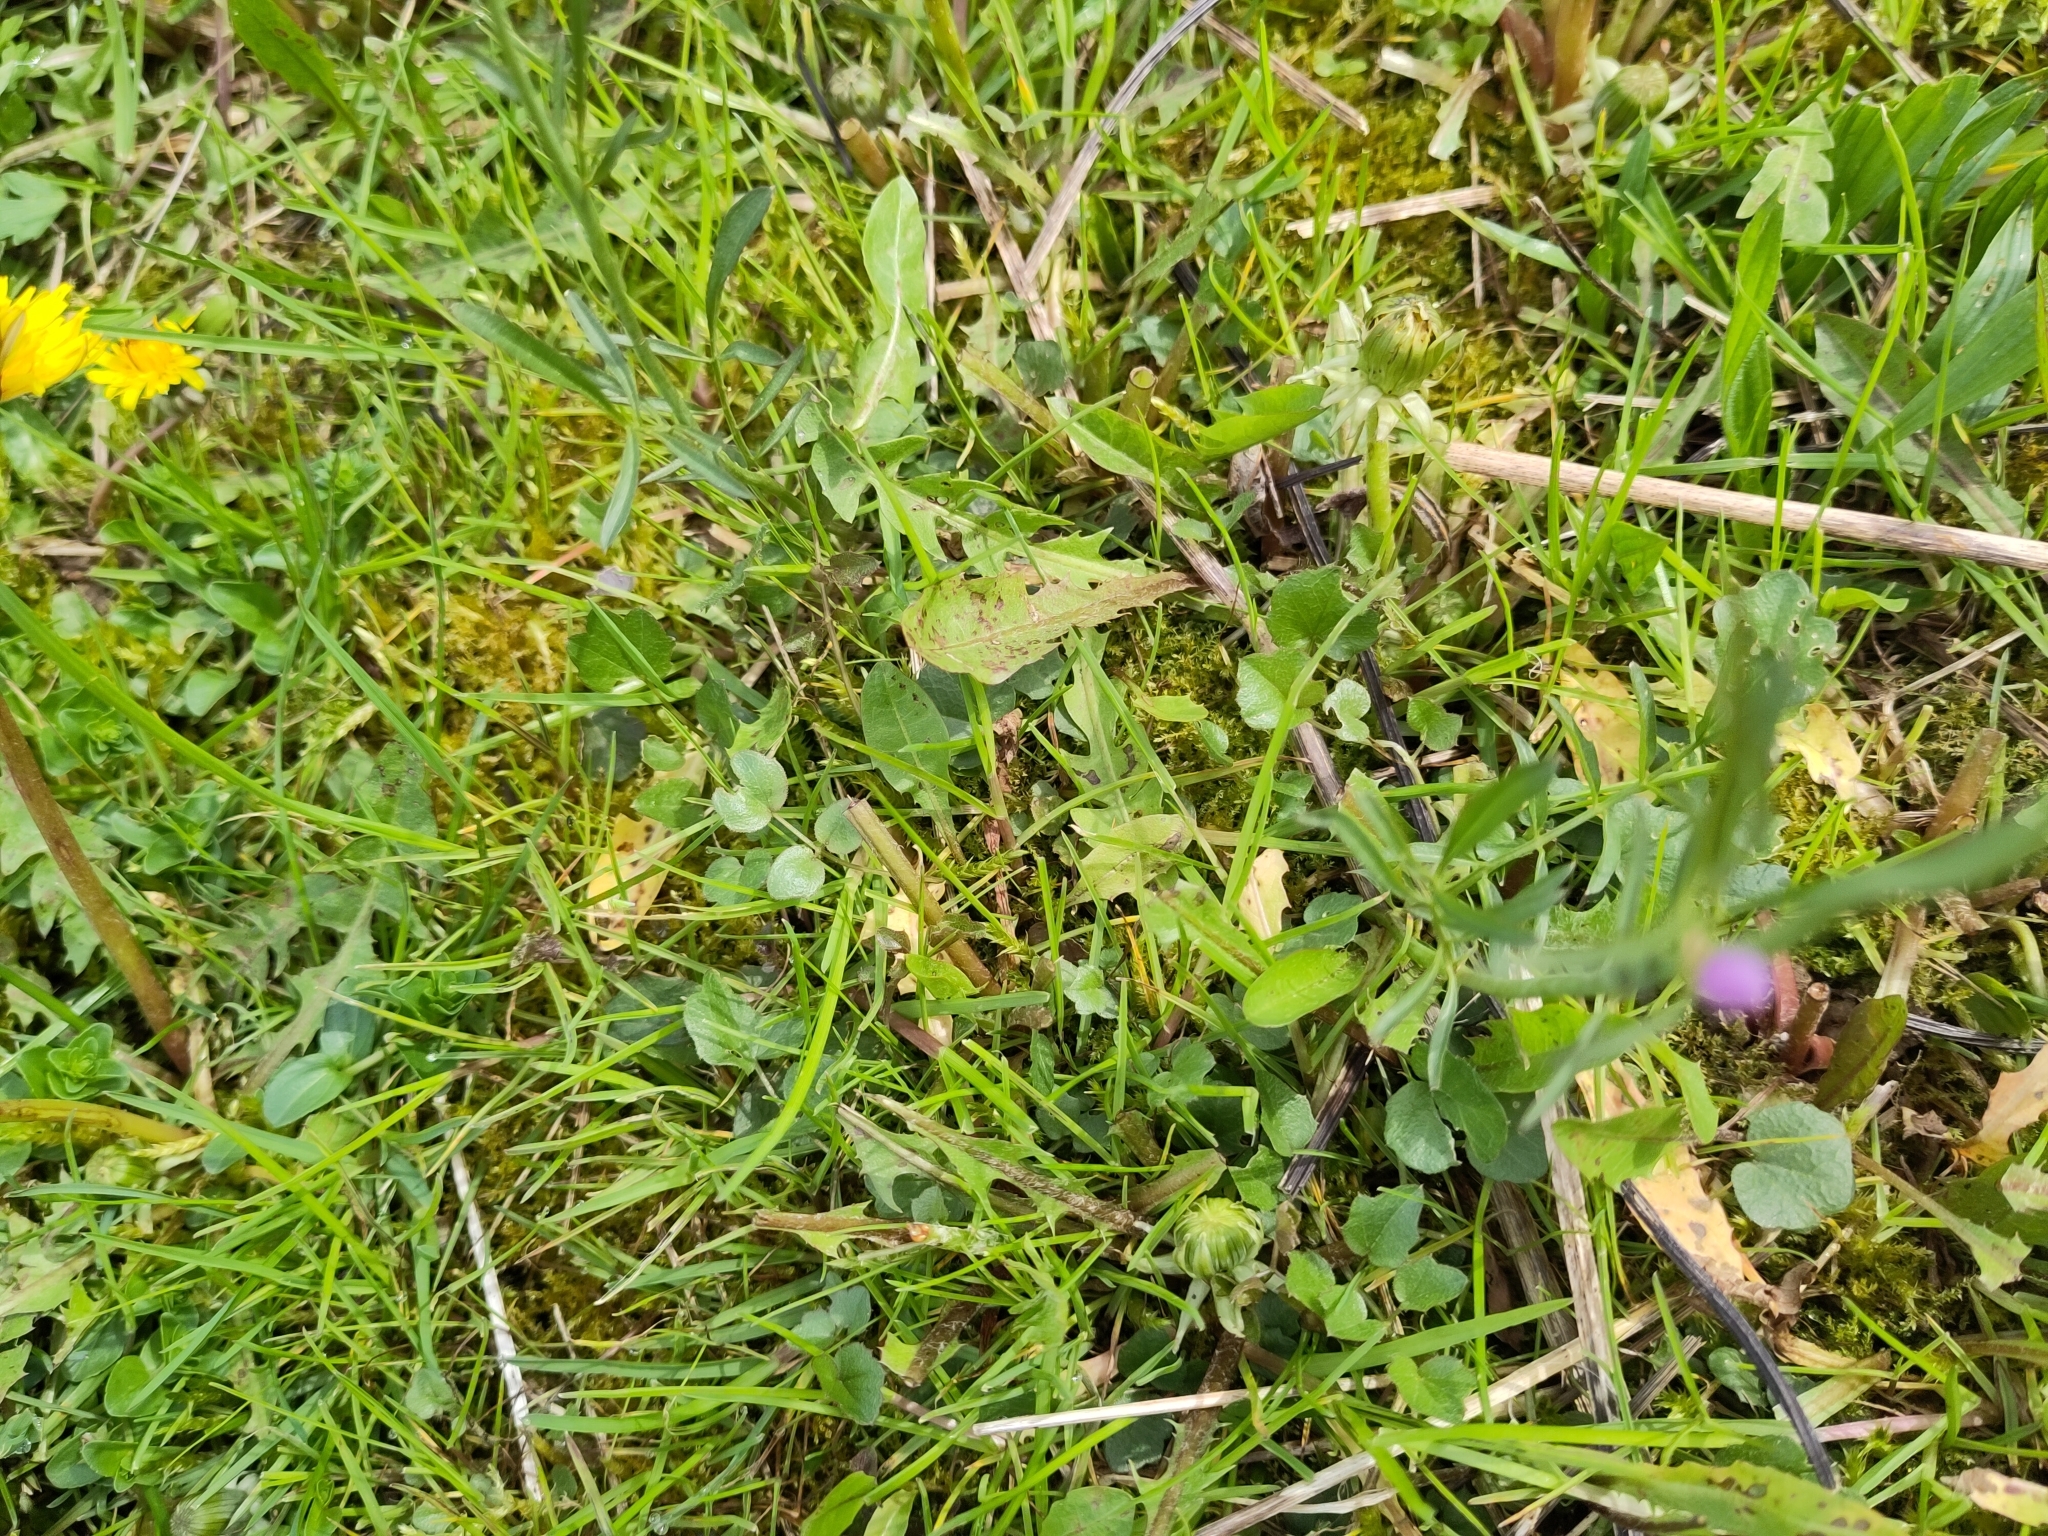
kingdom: Plantae
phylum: Tracheophyta
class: Magnoliopsida
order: Brassicales
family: Brassicaceae
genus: Cardamine
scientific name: Cardamine pratensis
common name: Cuckoo flower
